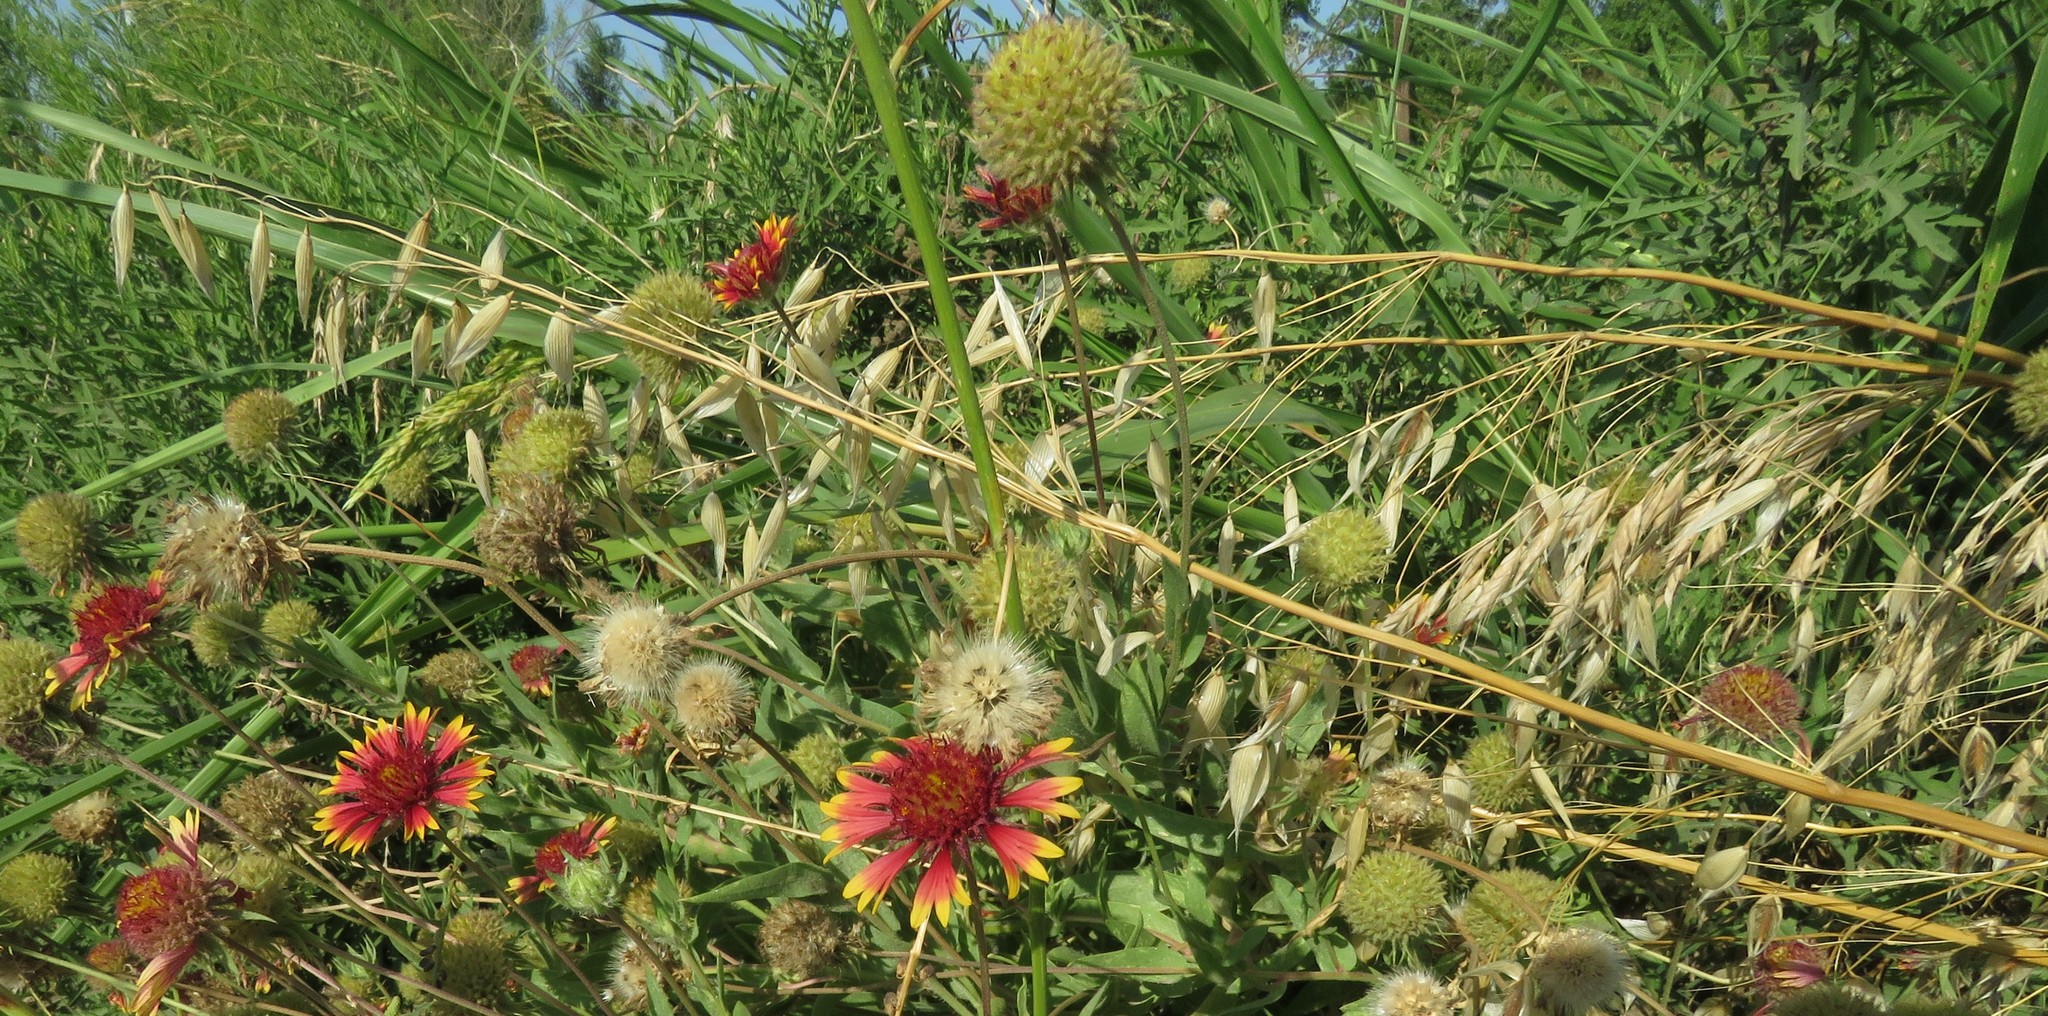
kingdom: Plantae
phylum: Tracheophyta
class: Liliopsida
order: Poales
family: Poaceae
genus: Avena
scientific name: Avena fatua
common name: Wild oat
